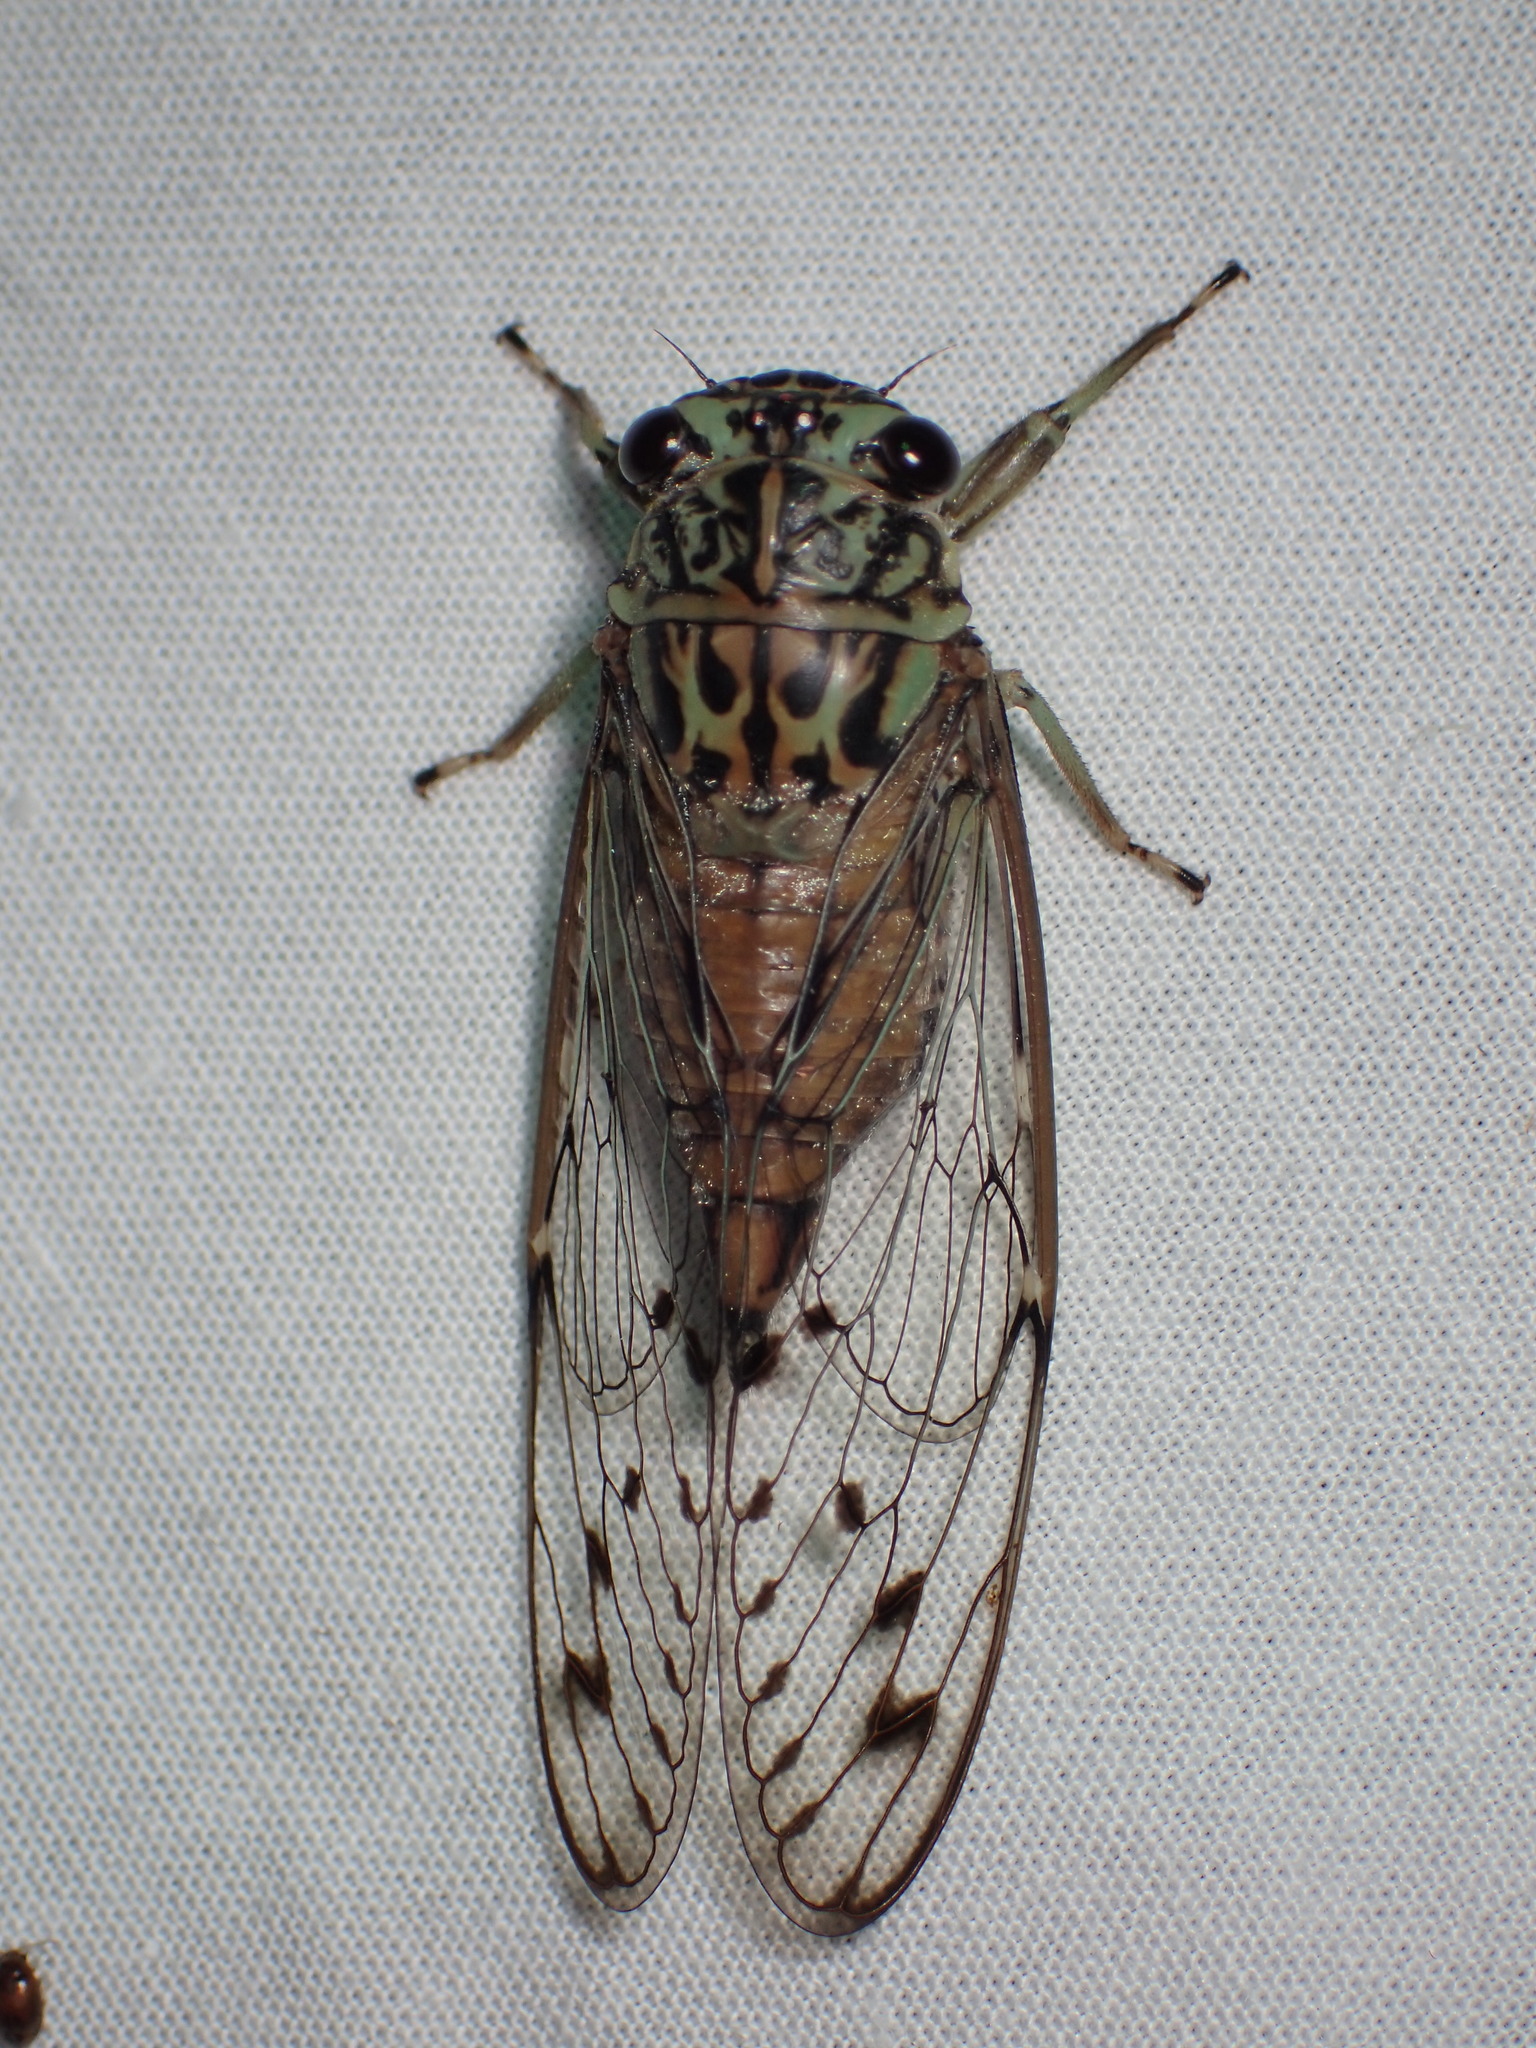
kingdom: Animalia
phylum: Arthropoda
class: Insecta
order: Hemiptera
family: Cicadidae
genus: Neocicada
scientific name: Neocicada hieroglyphica
